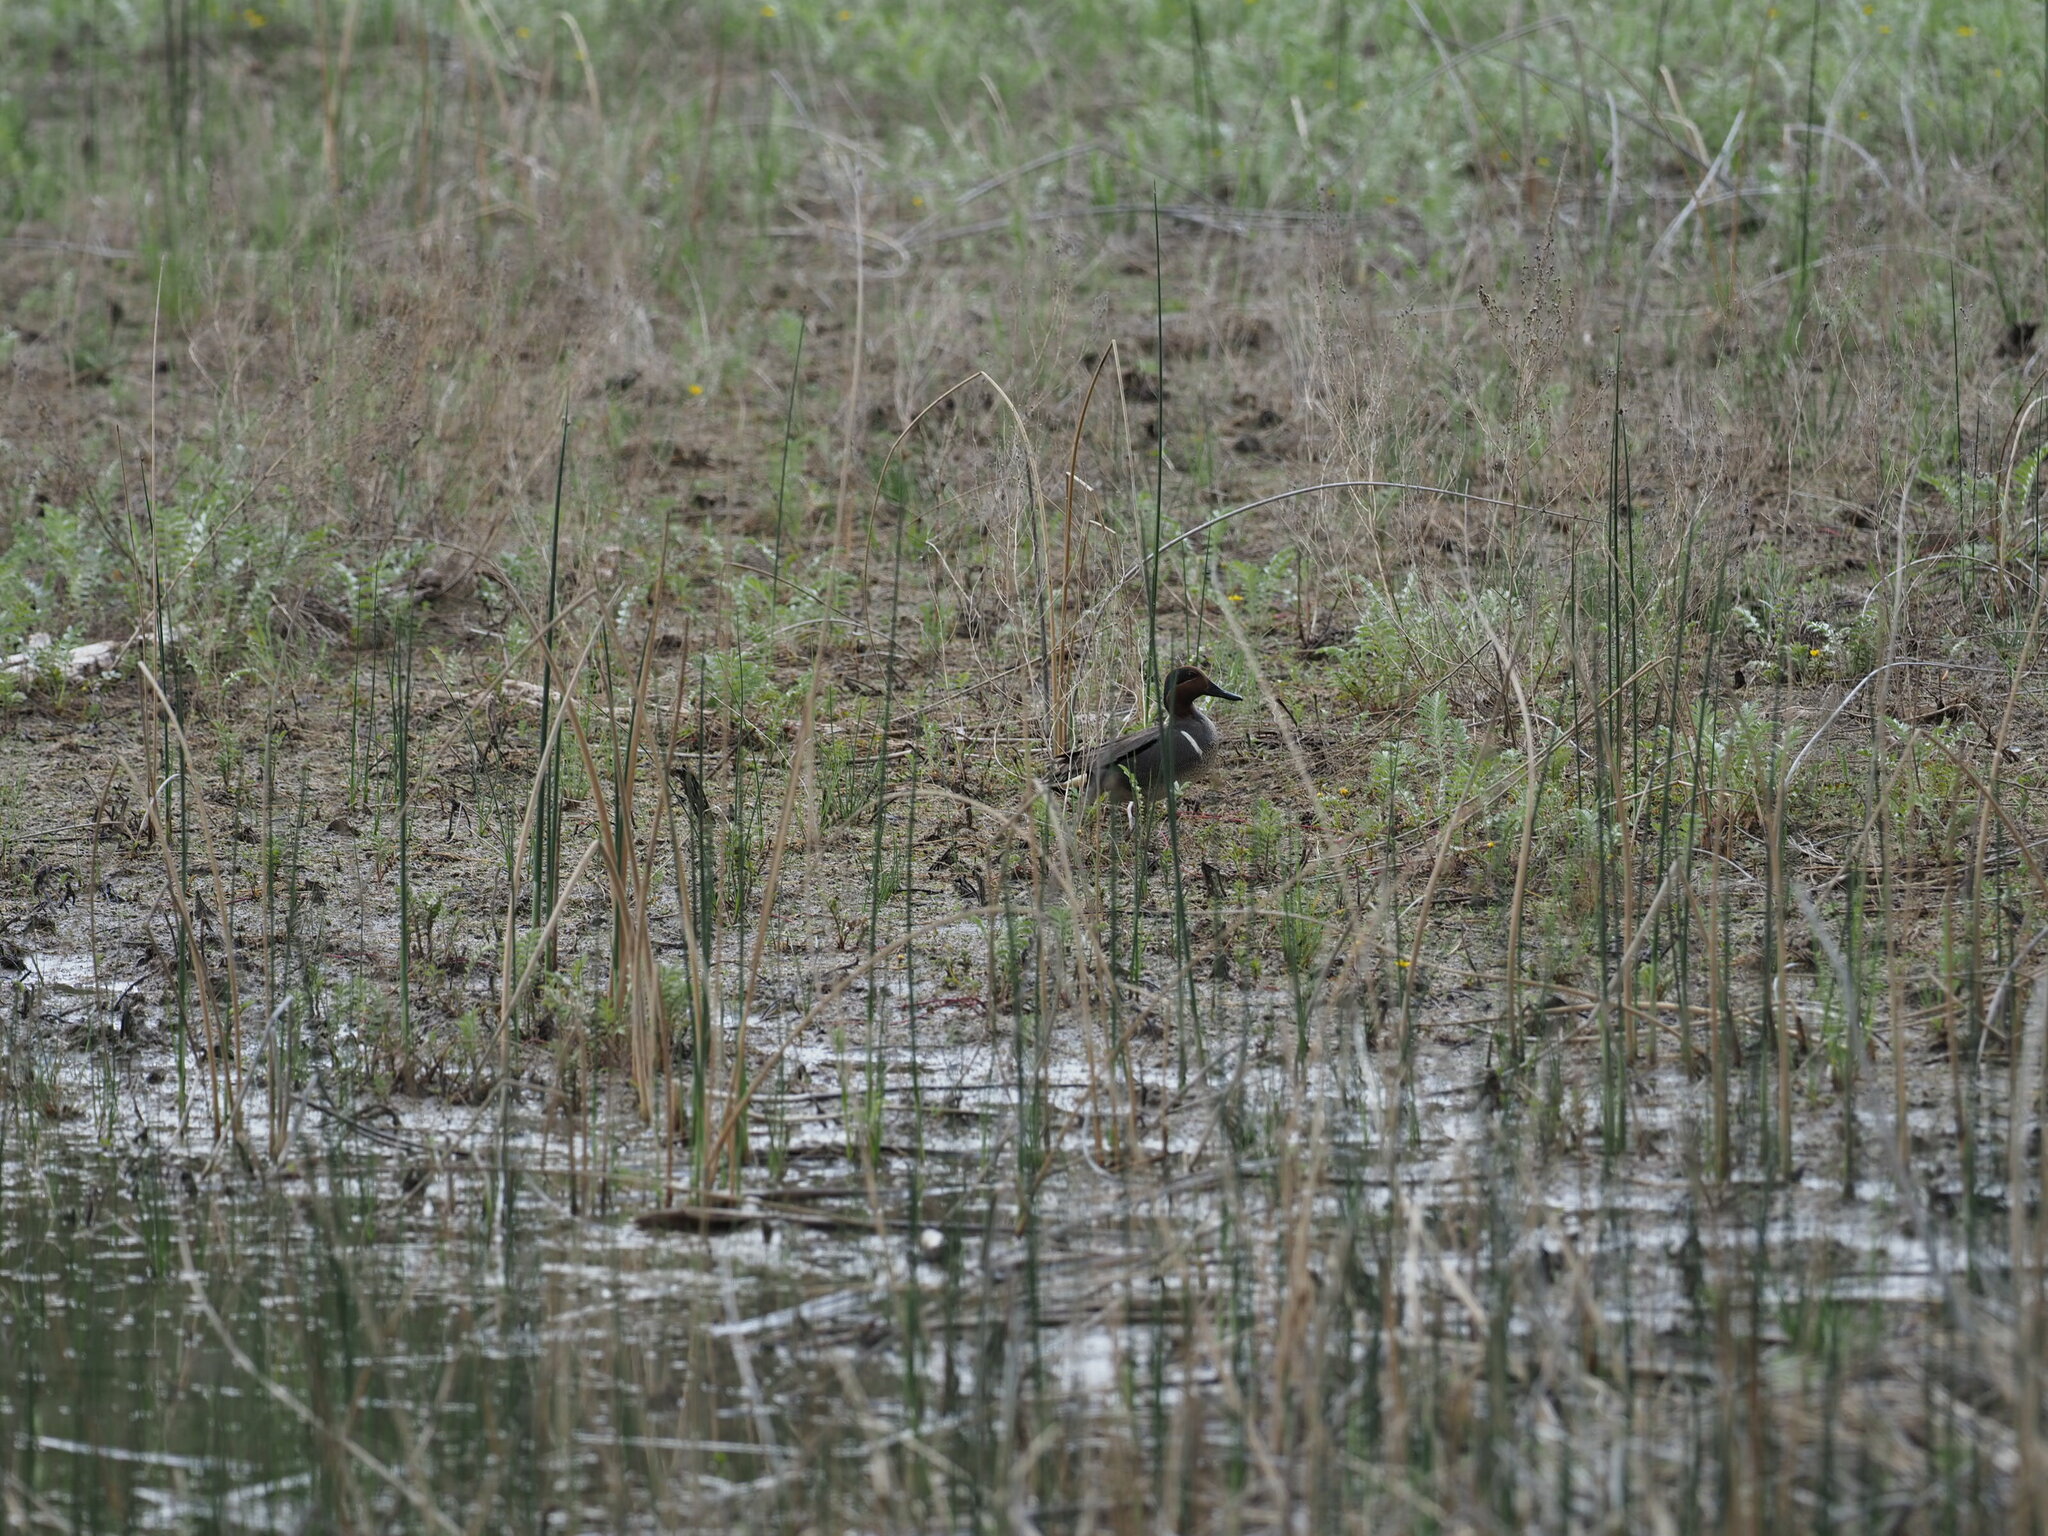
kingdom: Animalia
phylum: Chordata
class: Aves
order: Anseriformes
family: Anatidae
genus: Anas
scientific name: Anas crecca
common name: Eurasian teal
